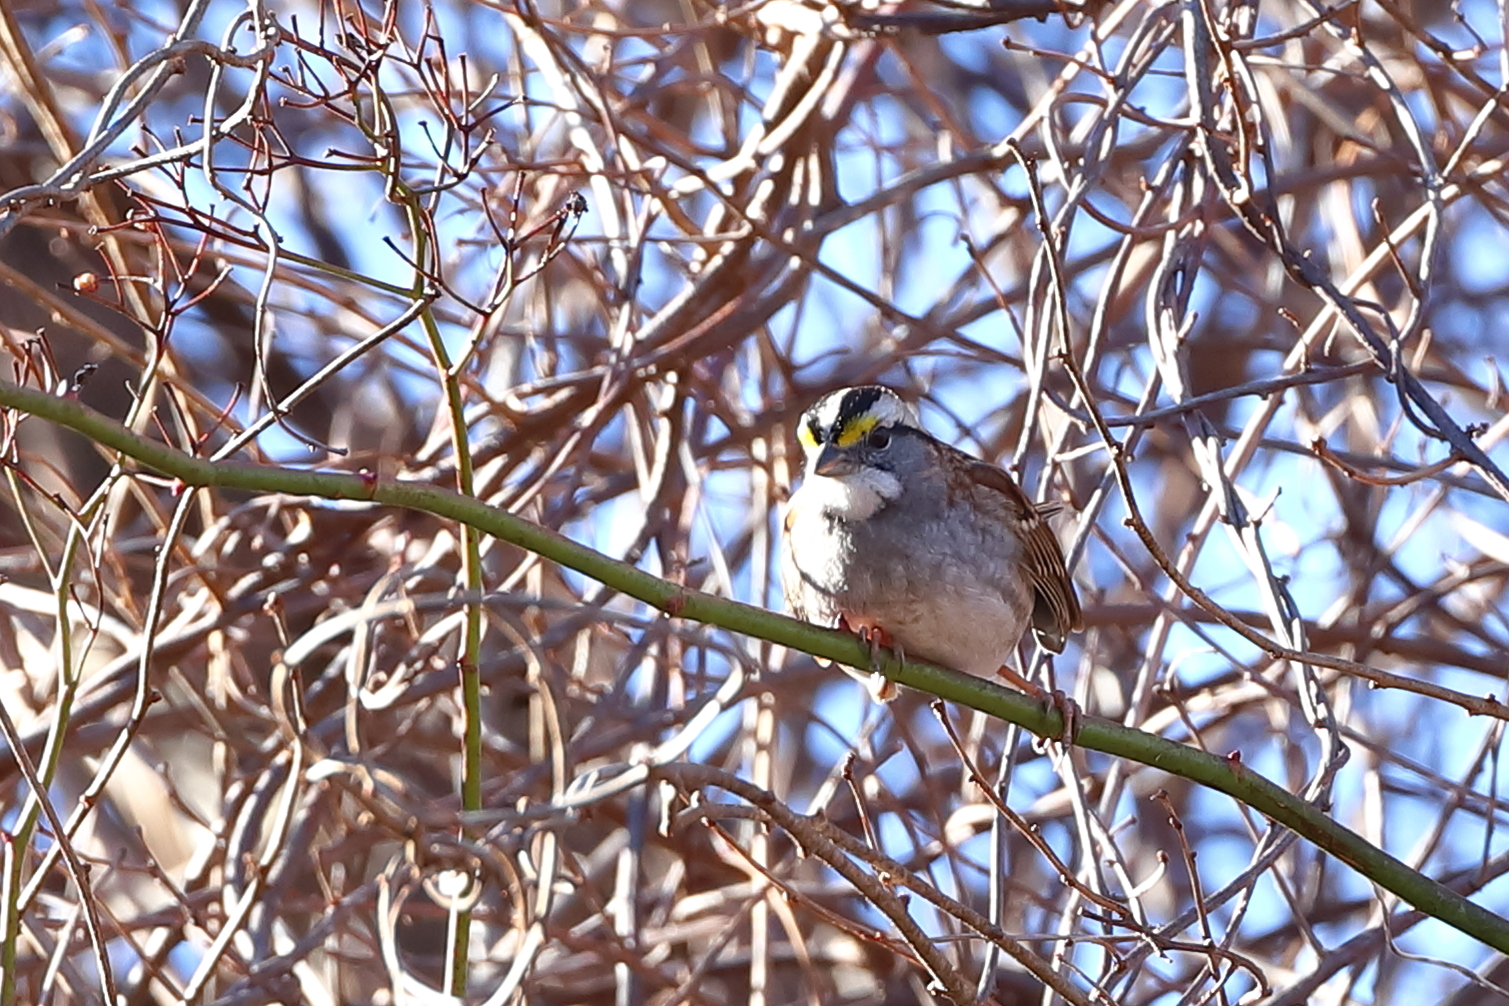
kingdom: Animalia
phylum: Chordata
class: Aves
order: Passeriformes
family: Passerellidae
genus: Zonotrichia
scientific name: Zonotrichia albicollis
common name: White-throated sparrow
